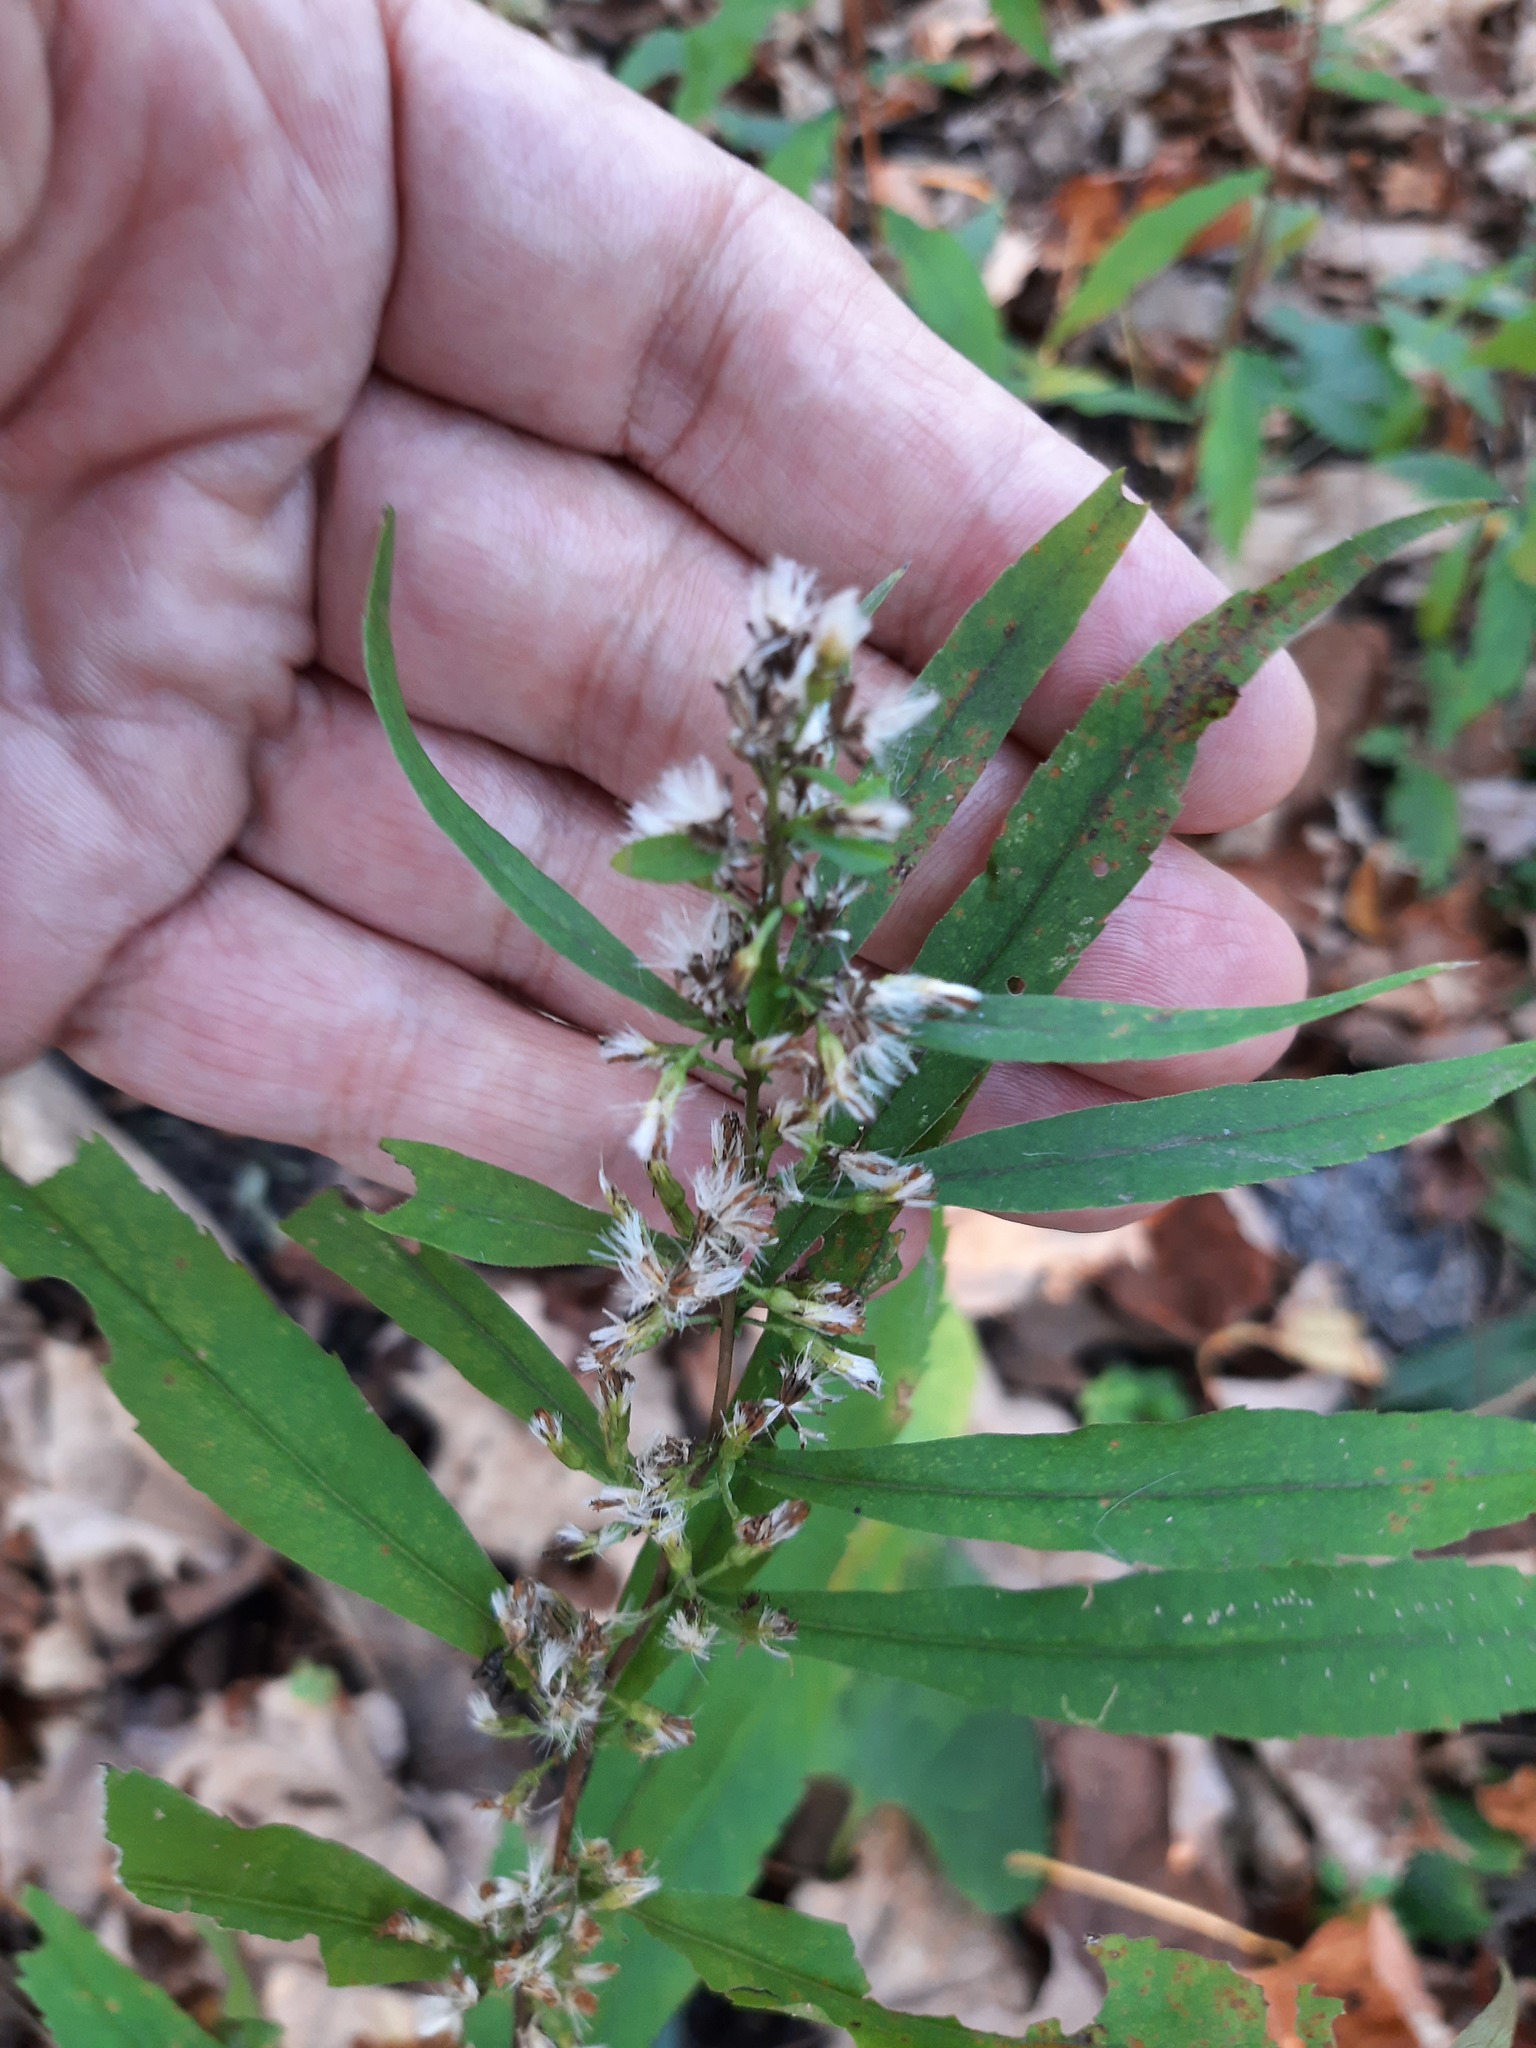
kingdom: Plantae
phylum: Tracheophyta
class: Magnoliopsida
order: Asterales
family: Asteraceae
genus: Solidago
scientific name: Solidago caesia
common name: Woodland goldenrod
